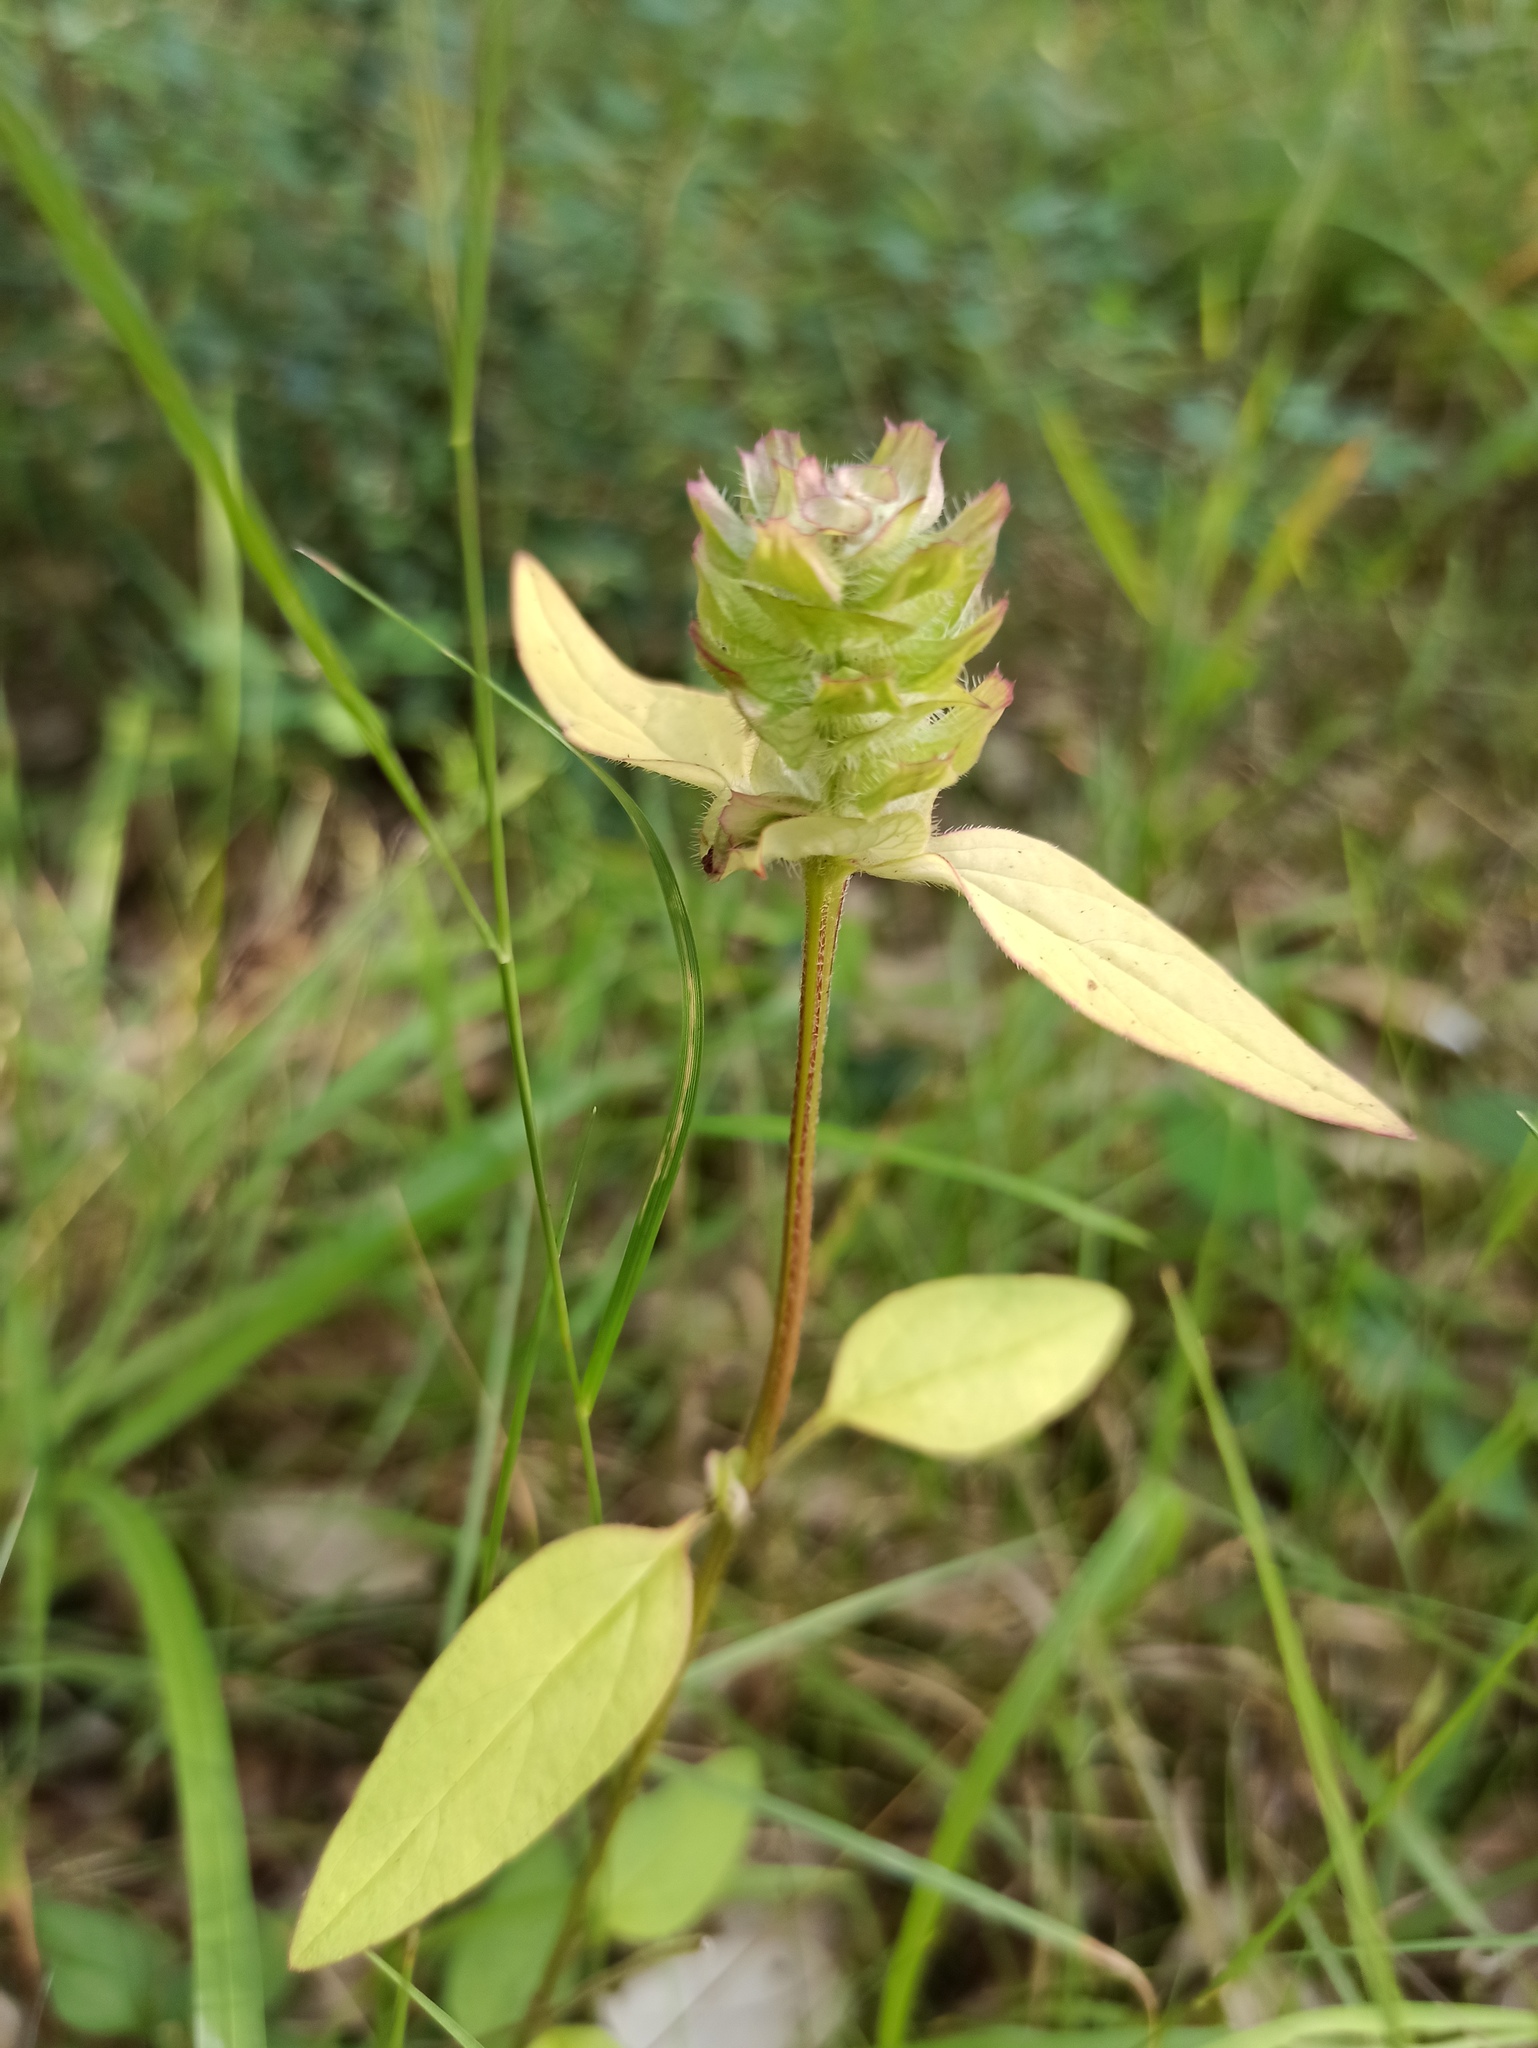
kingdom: Plantae
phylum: Tracheophyta
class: Magnoliopsida
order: Lamiales
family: Lamiaceae
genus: Prunella
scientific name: Prunella vulgaris
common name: Heal-all
